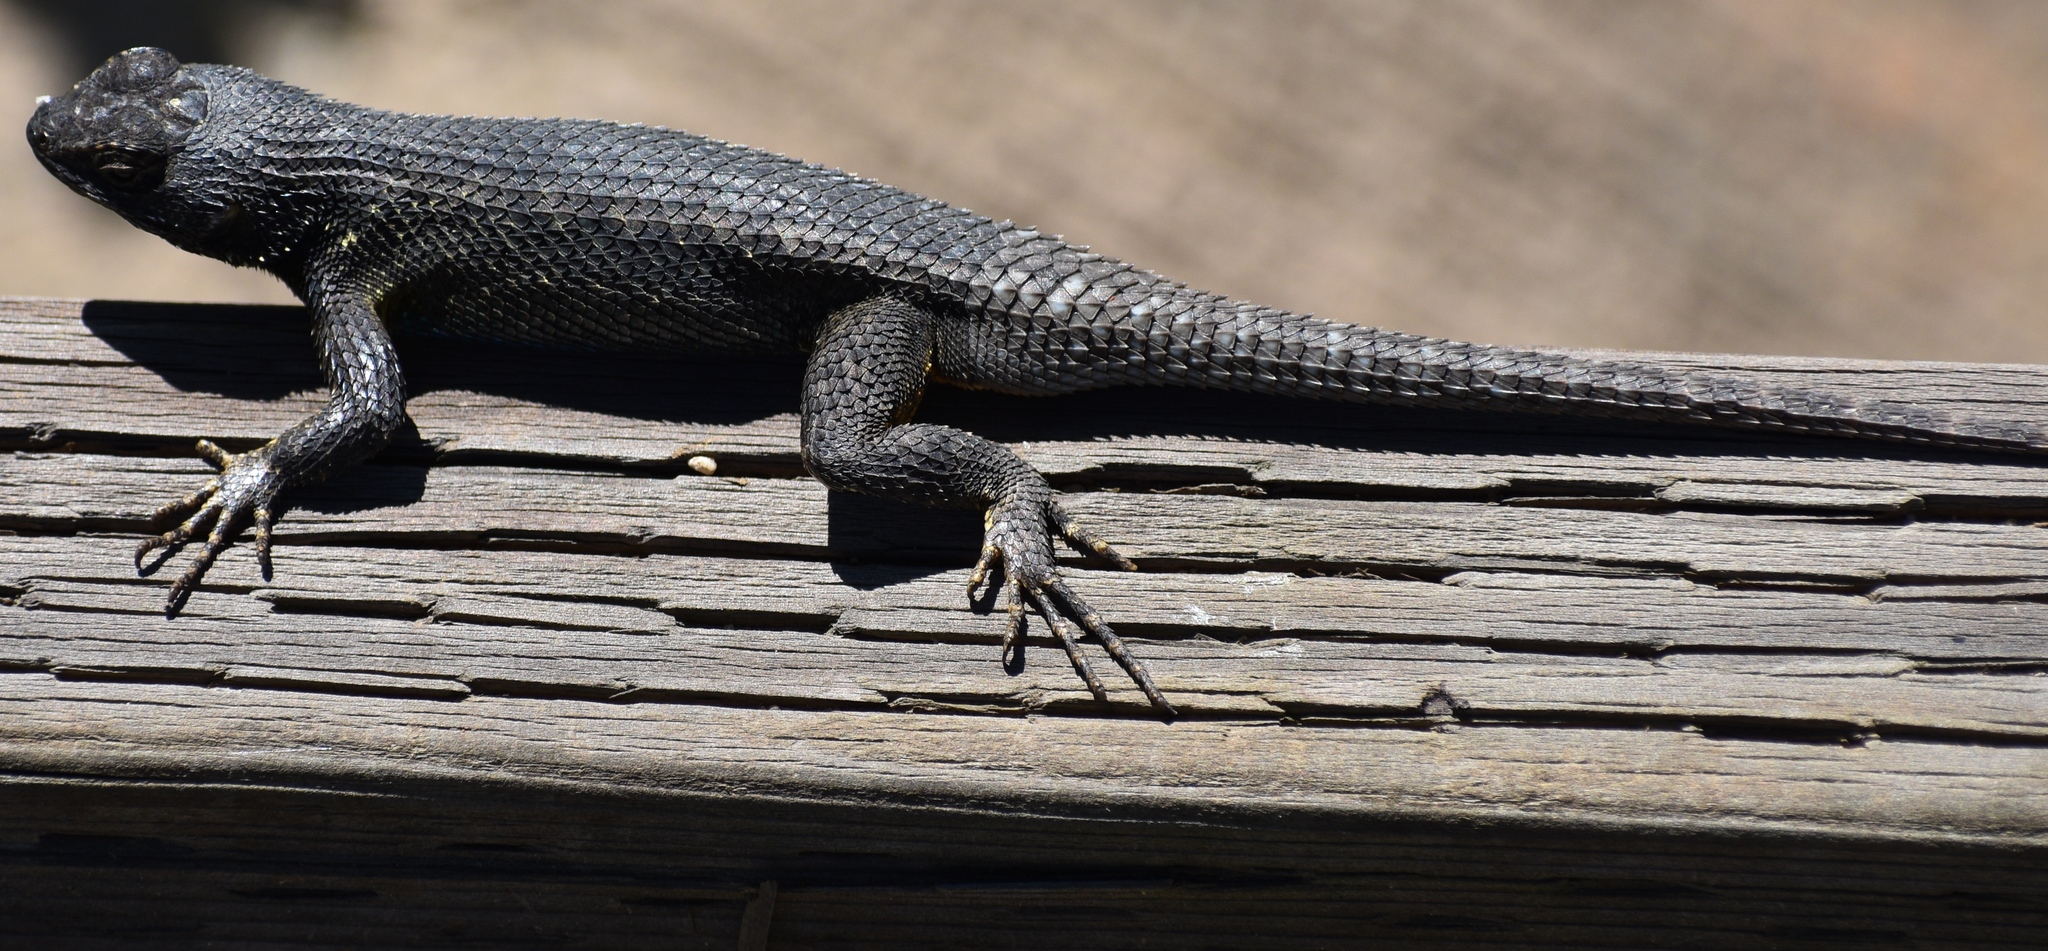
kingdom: Animalia
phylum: Chordata
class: Squamata
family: Phrynosomatidae
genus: Sceloporus
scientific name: Sceloporus occidentalis
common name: Western fence lizard
